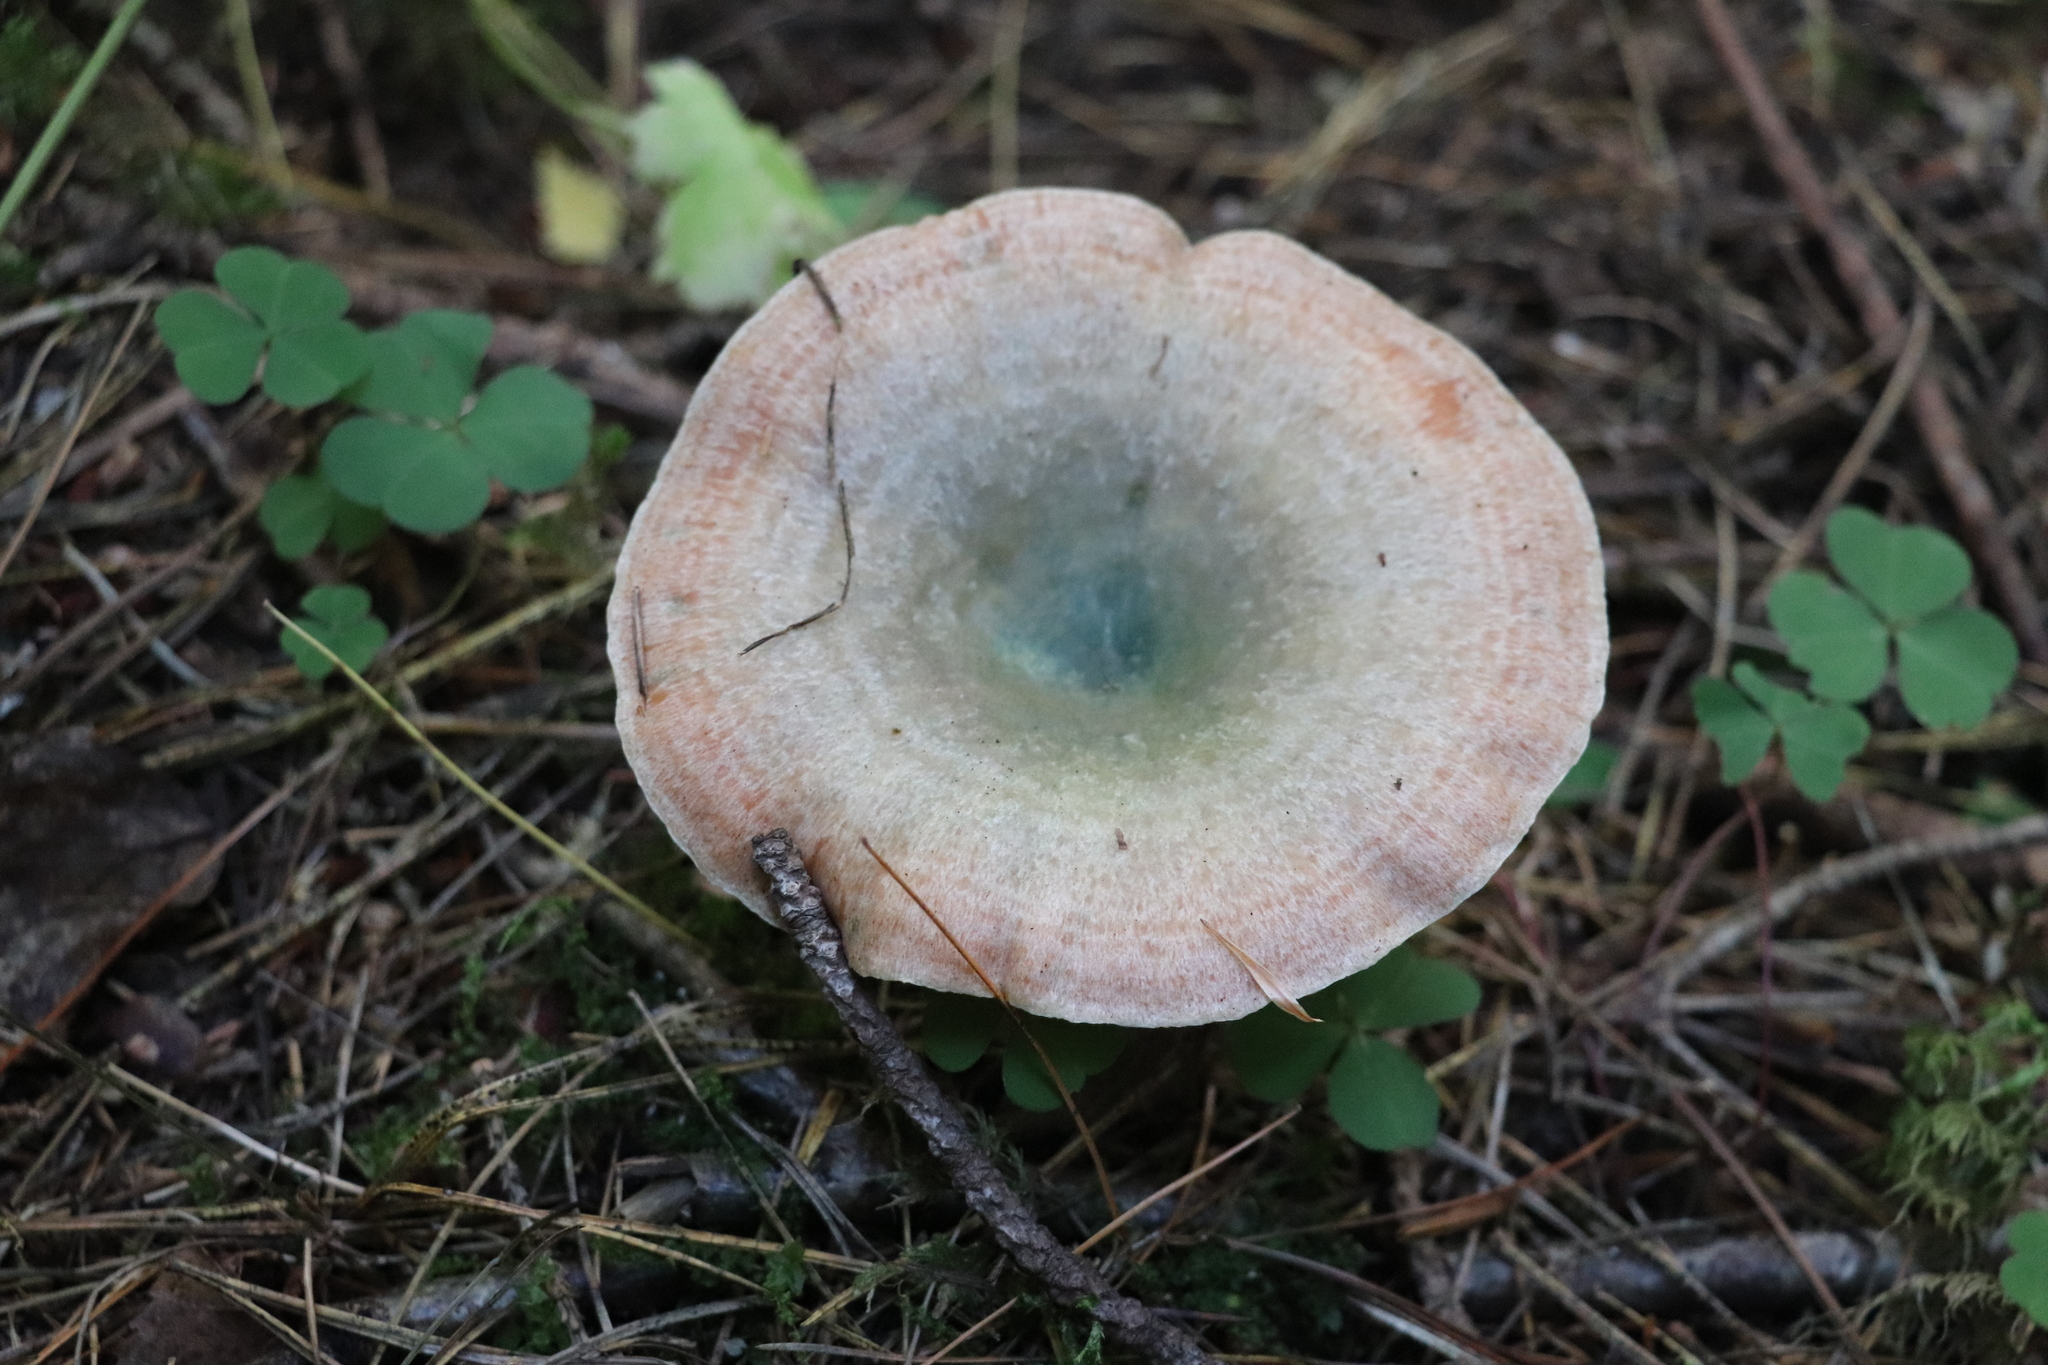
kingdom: Fungi
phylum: Basidiomycota
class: Agaricomycetes
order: Russulales
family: Russulaceae
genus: Lactarius
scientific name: Lactarius deterrimus
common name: False saffron milkcap
